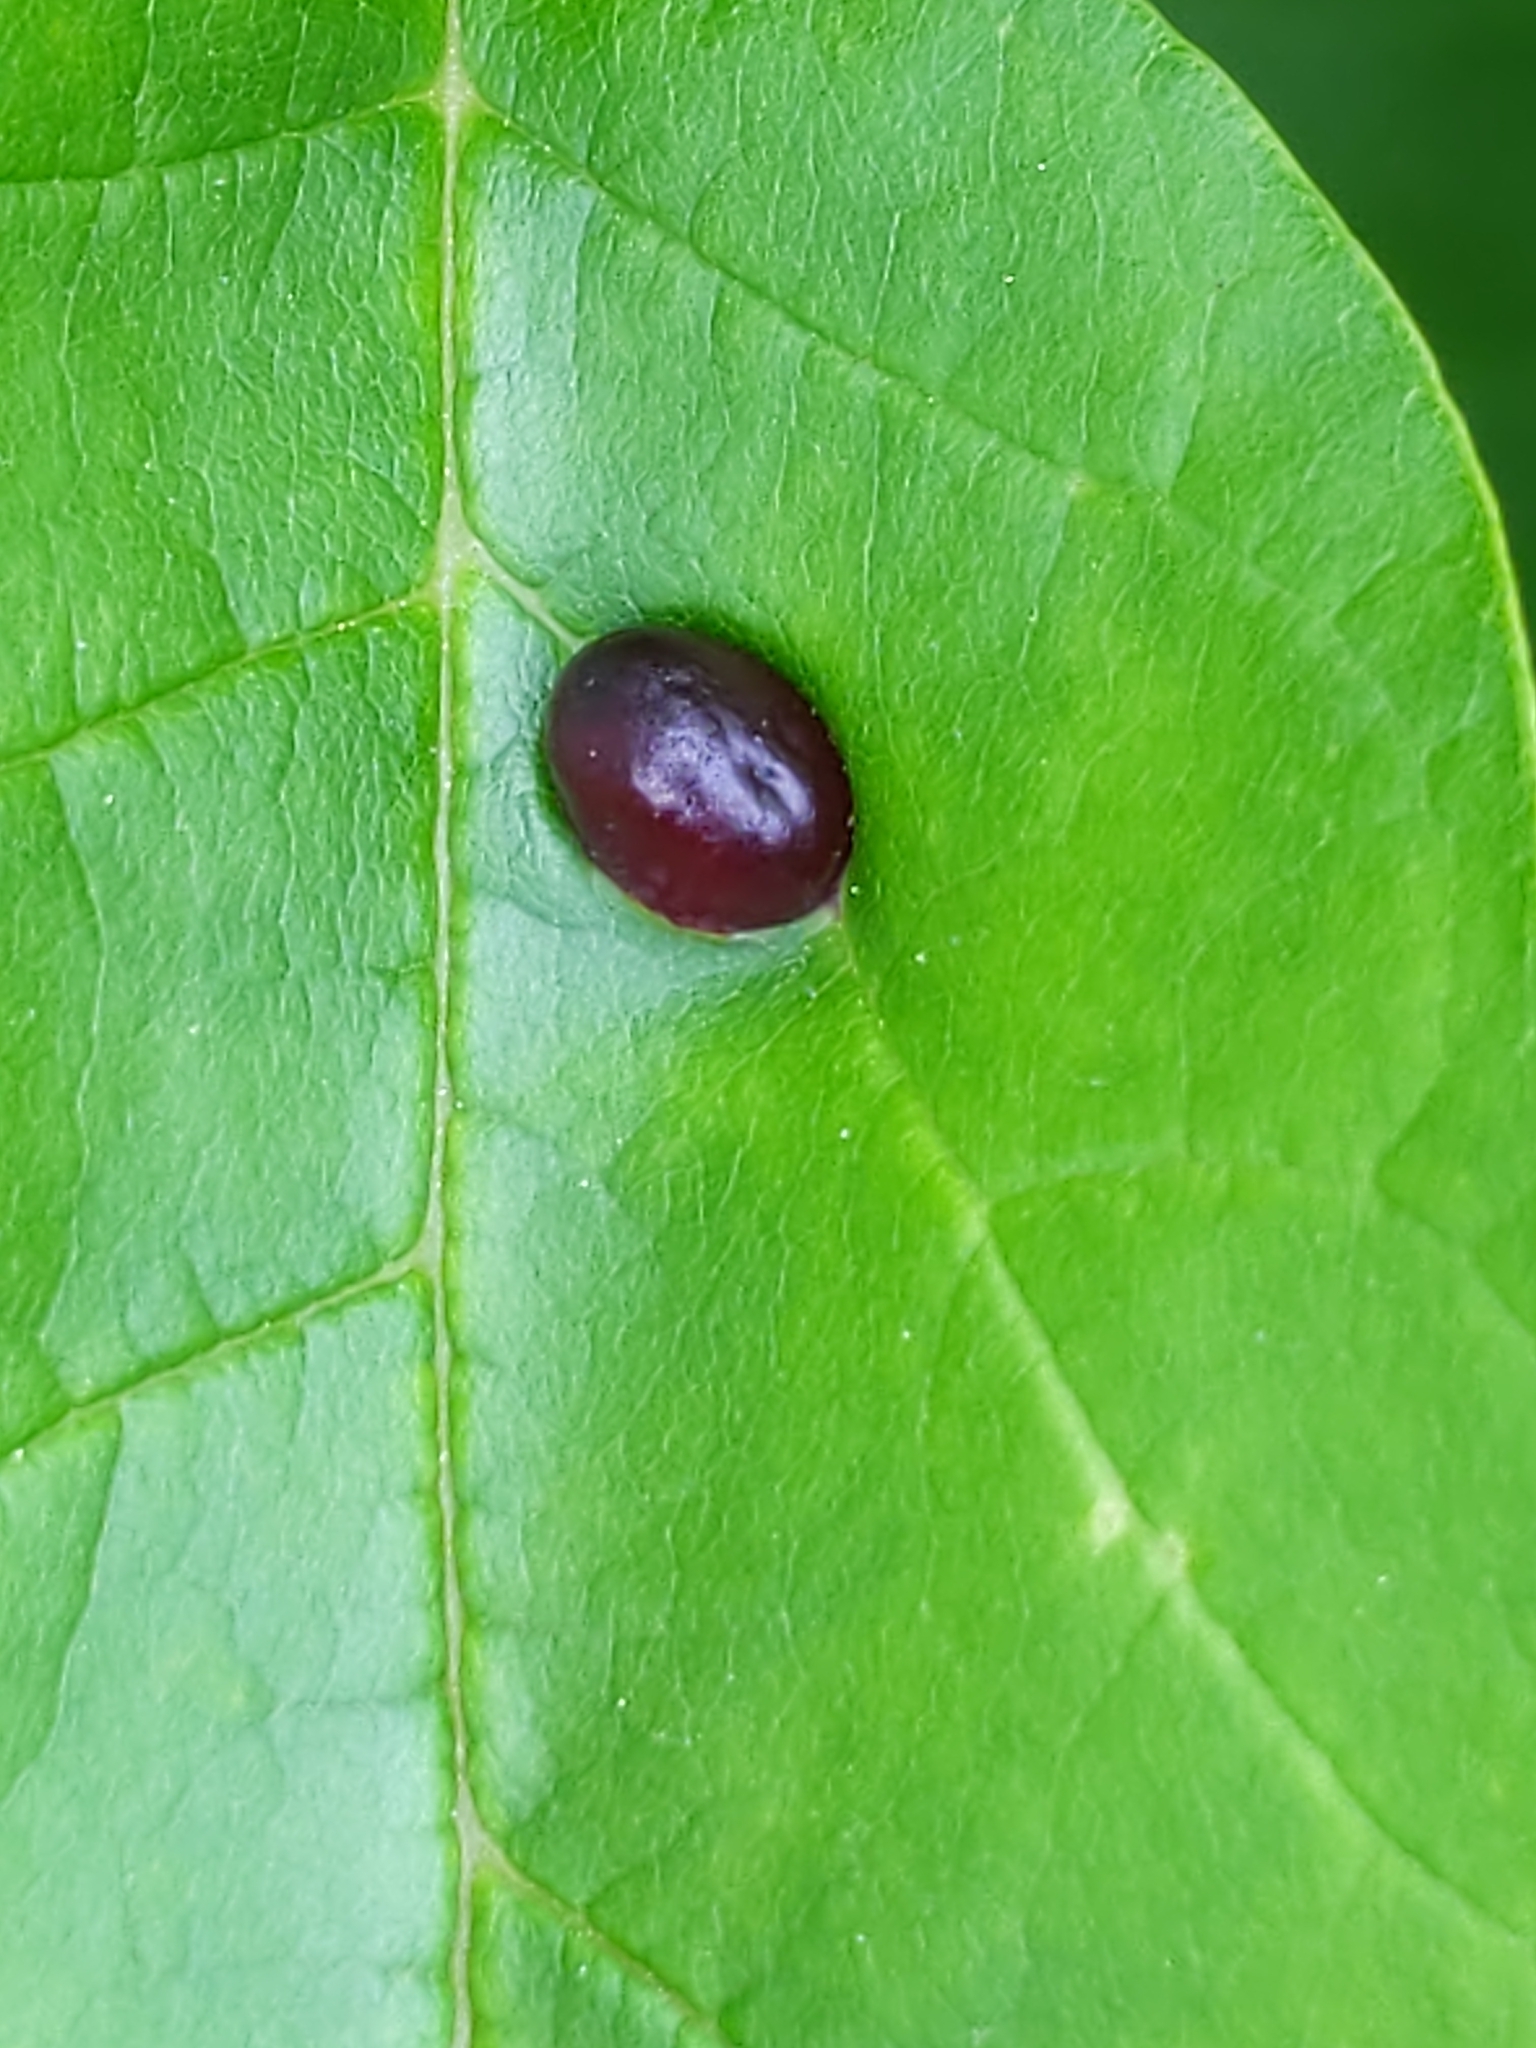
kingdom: Animalia
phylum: Arthropoda
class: Insecta
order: Diptera
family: Cecidomyiidae
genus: Dasineura
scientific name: Dasineura pellex
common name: Ash bullet gall midge
